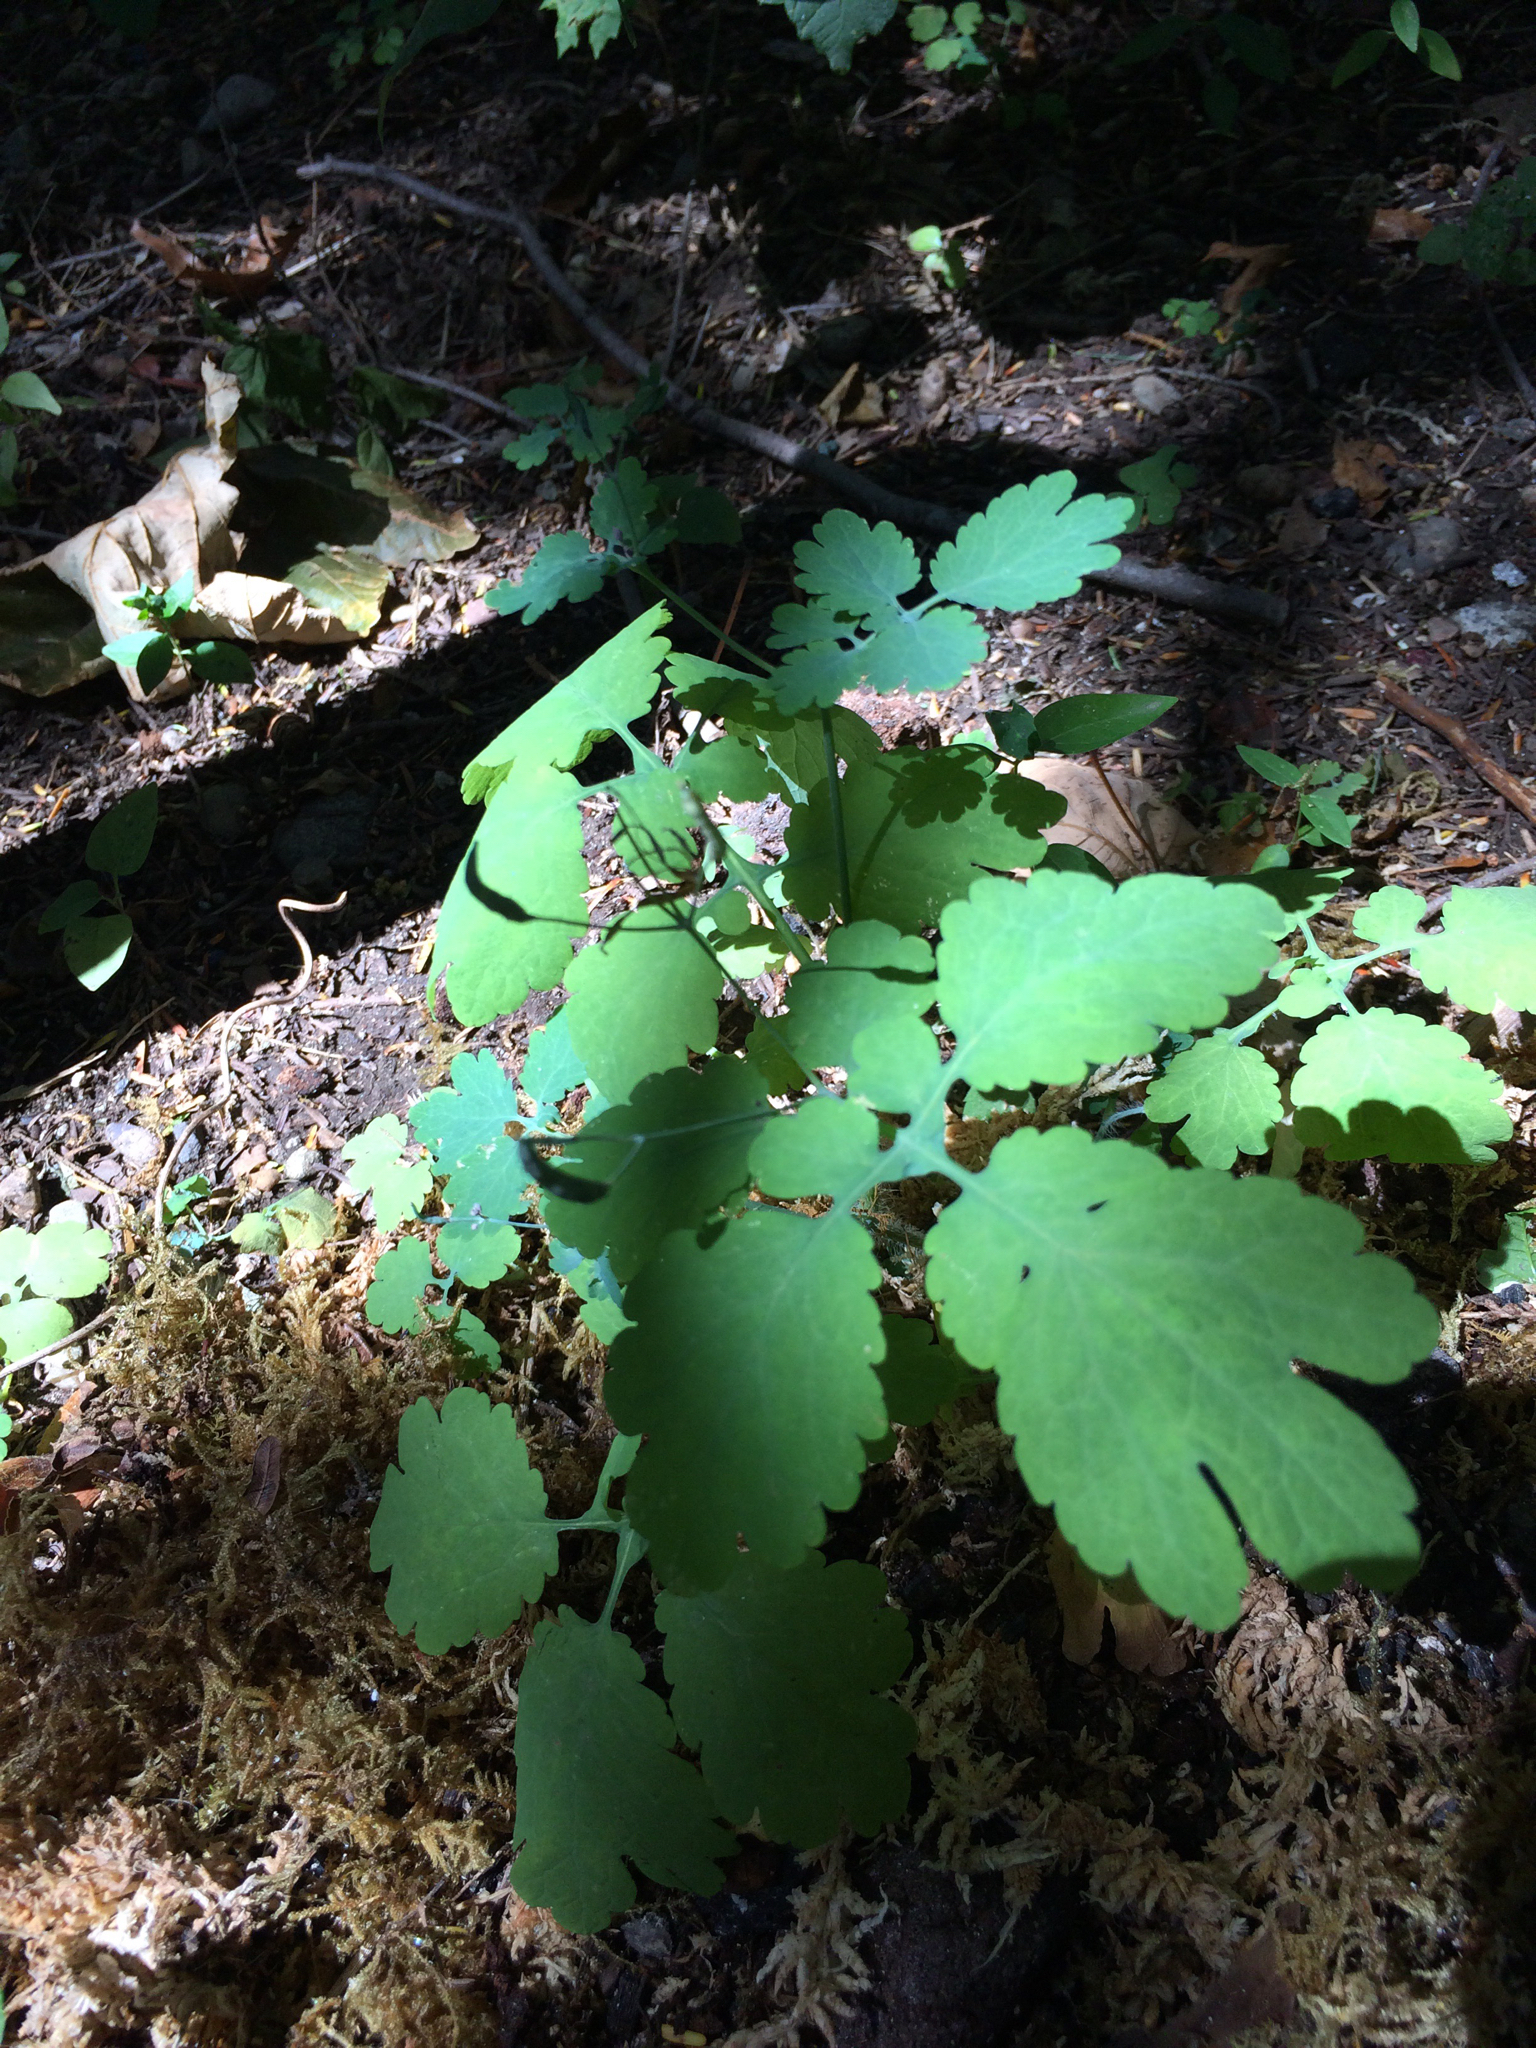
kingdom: Plantae
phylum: Tracheophyta
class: Magnoliopsida
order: Ranunculales
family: Papaveraceae
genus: Chelidonium
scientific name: Chelidonium majus
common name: Greater celandine
